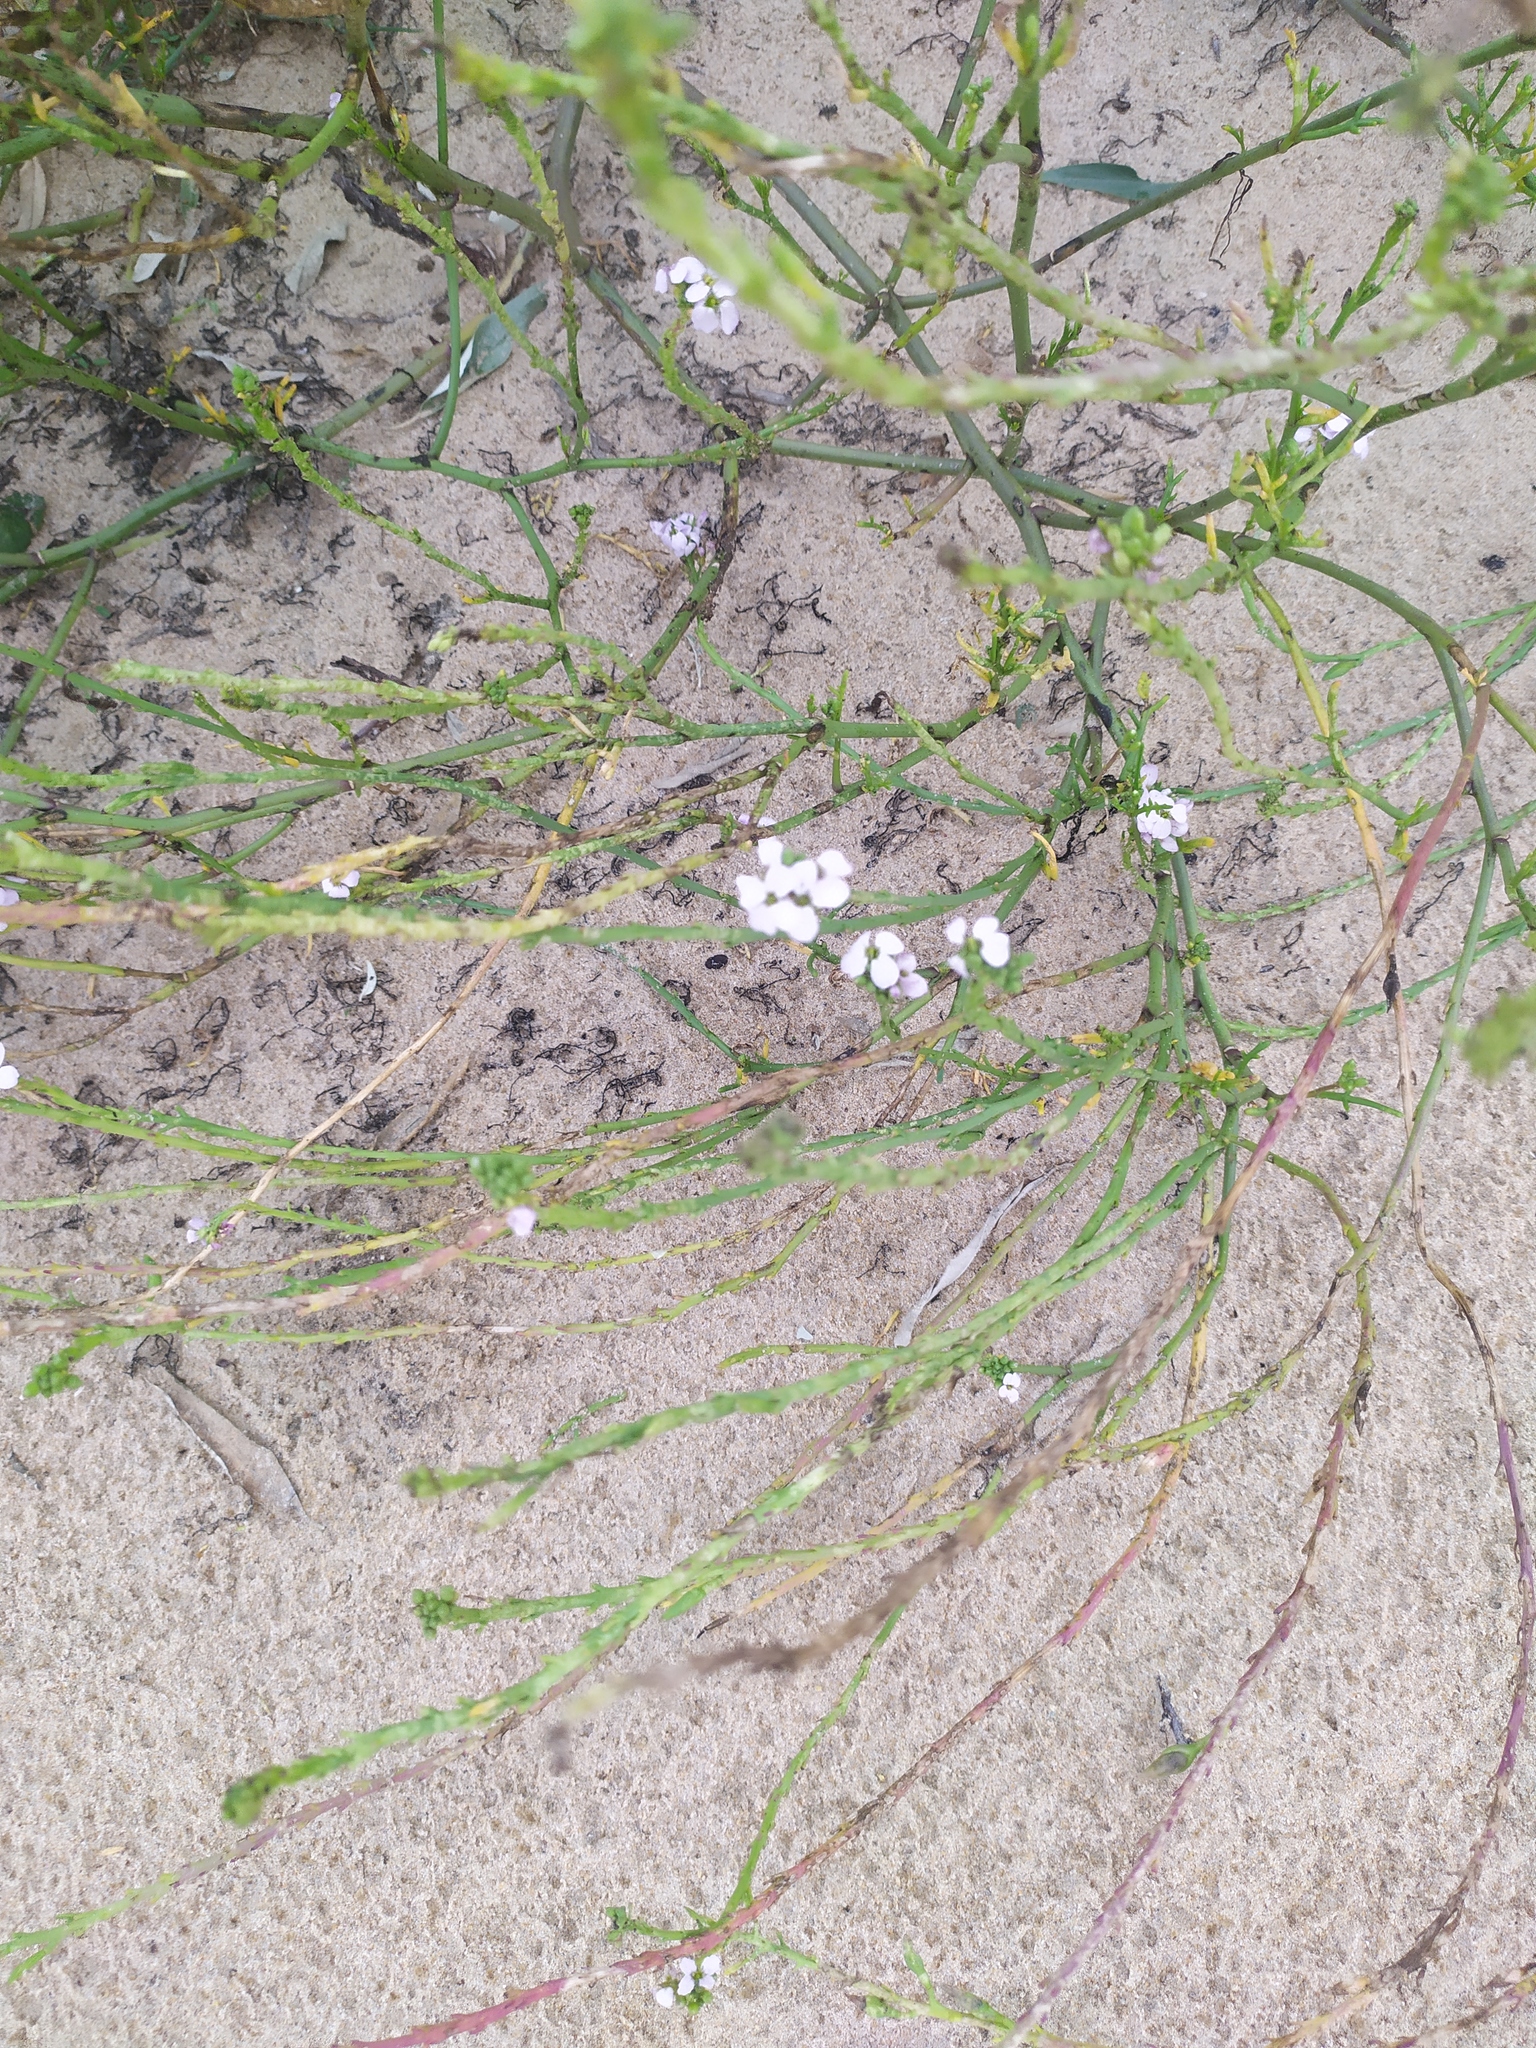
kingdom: Plantae
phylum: Tracheophyta
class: Magnoliopsida
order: Brassicales
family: Brassicaceae
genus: Cakile
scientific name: Cakile maritima
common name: Sea rocket
